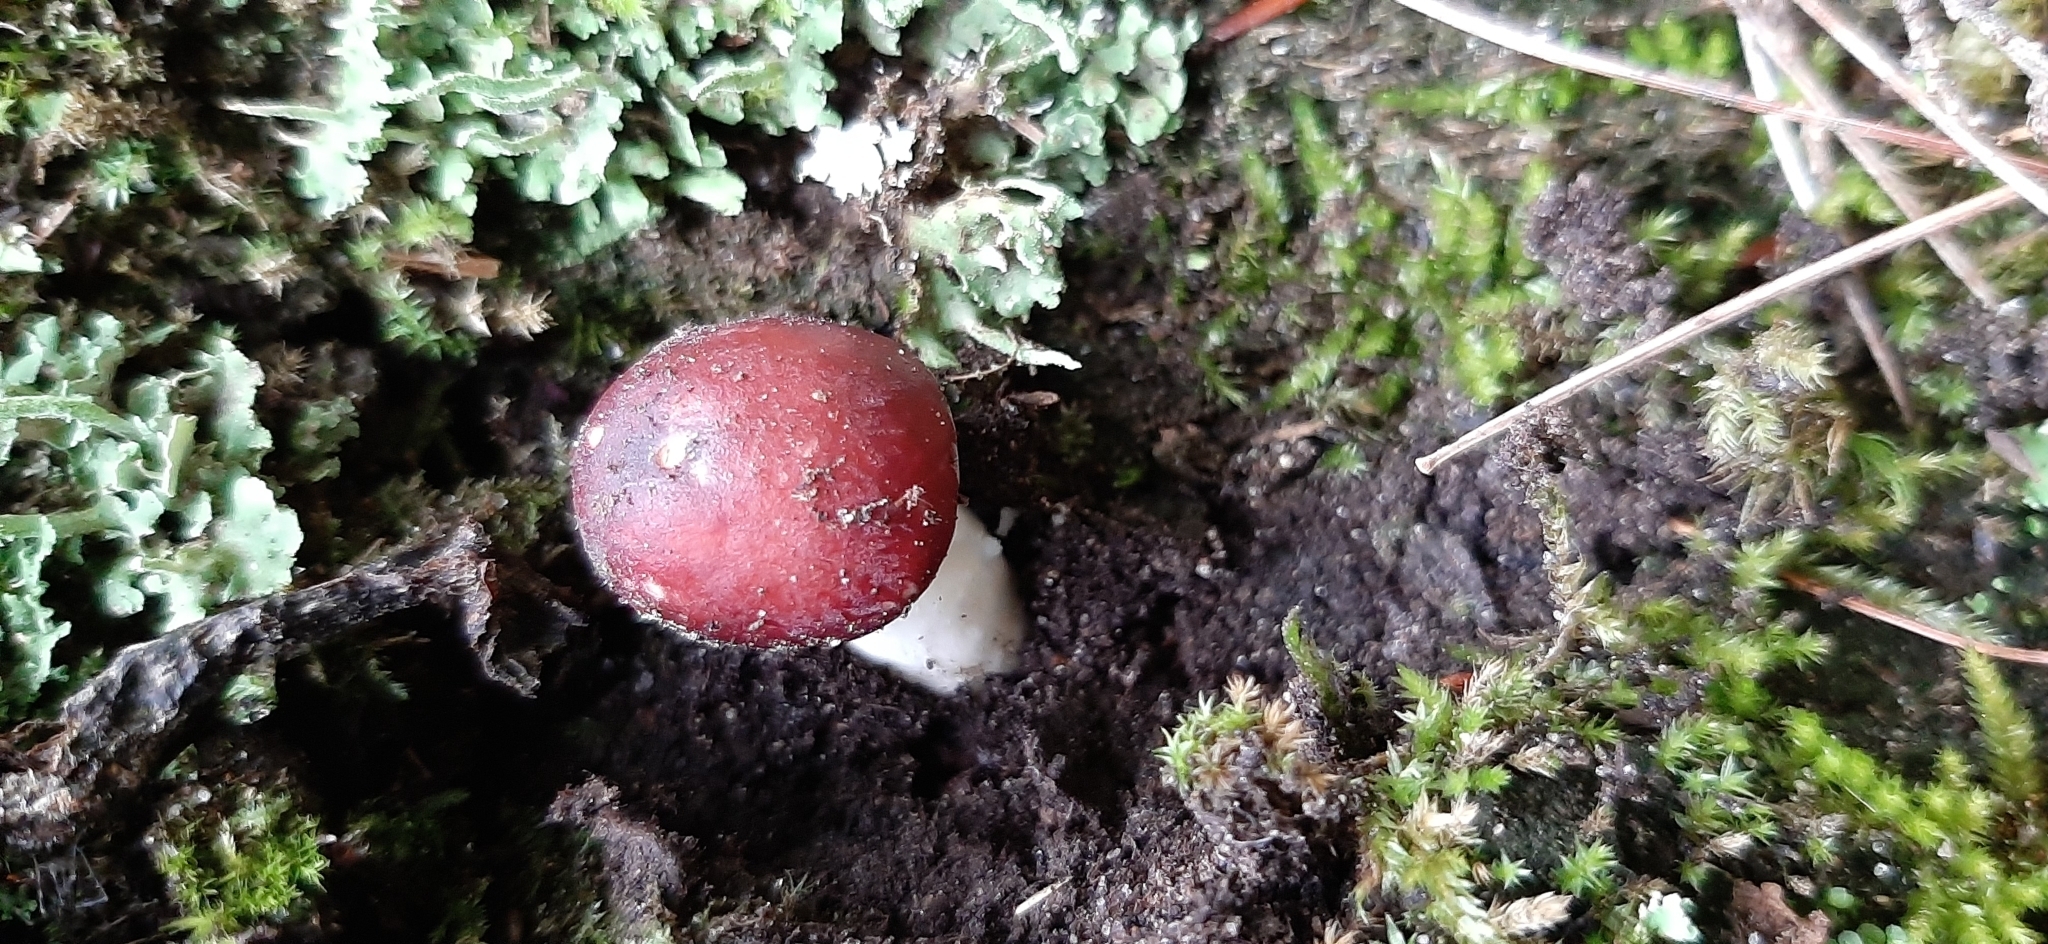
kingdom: Fungi
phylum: Basidiomycota
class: Agaricomycetes
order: Agaricales
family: Strophariaceae
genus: Stropharia
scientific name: Stropharia rugosoannulata
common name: Wine roundhead
